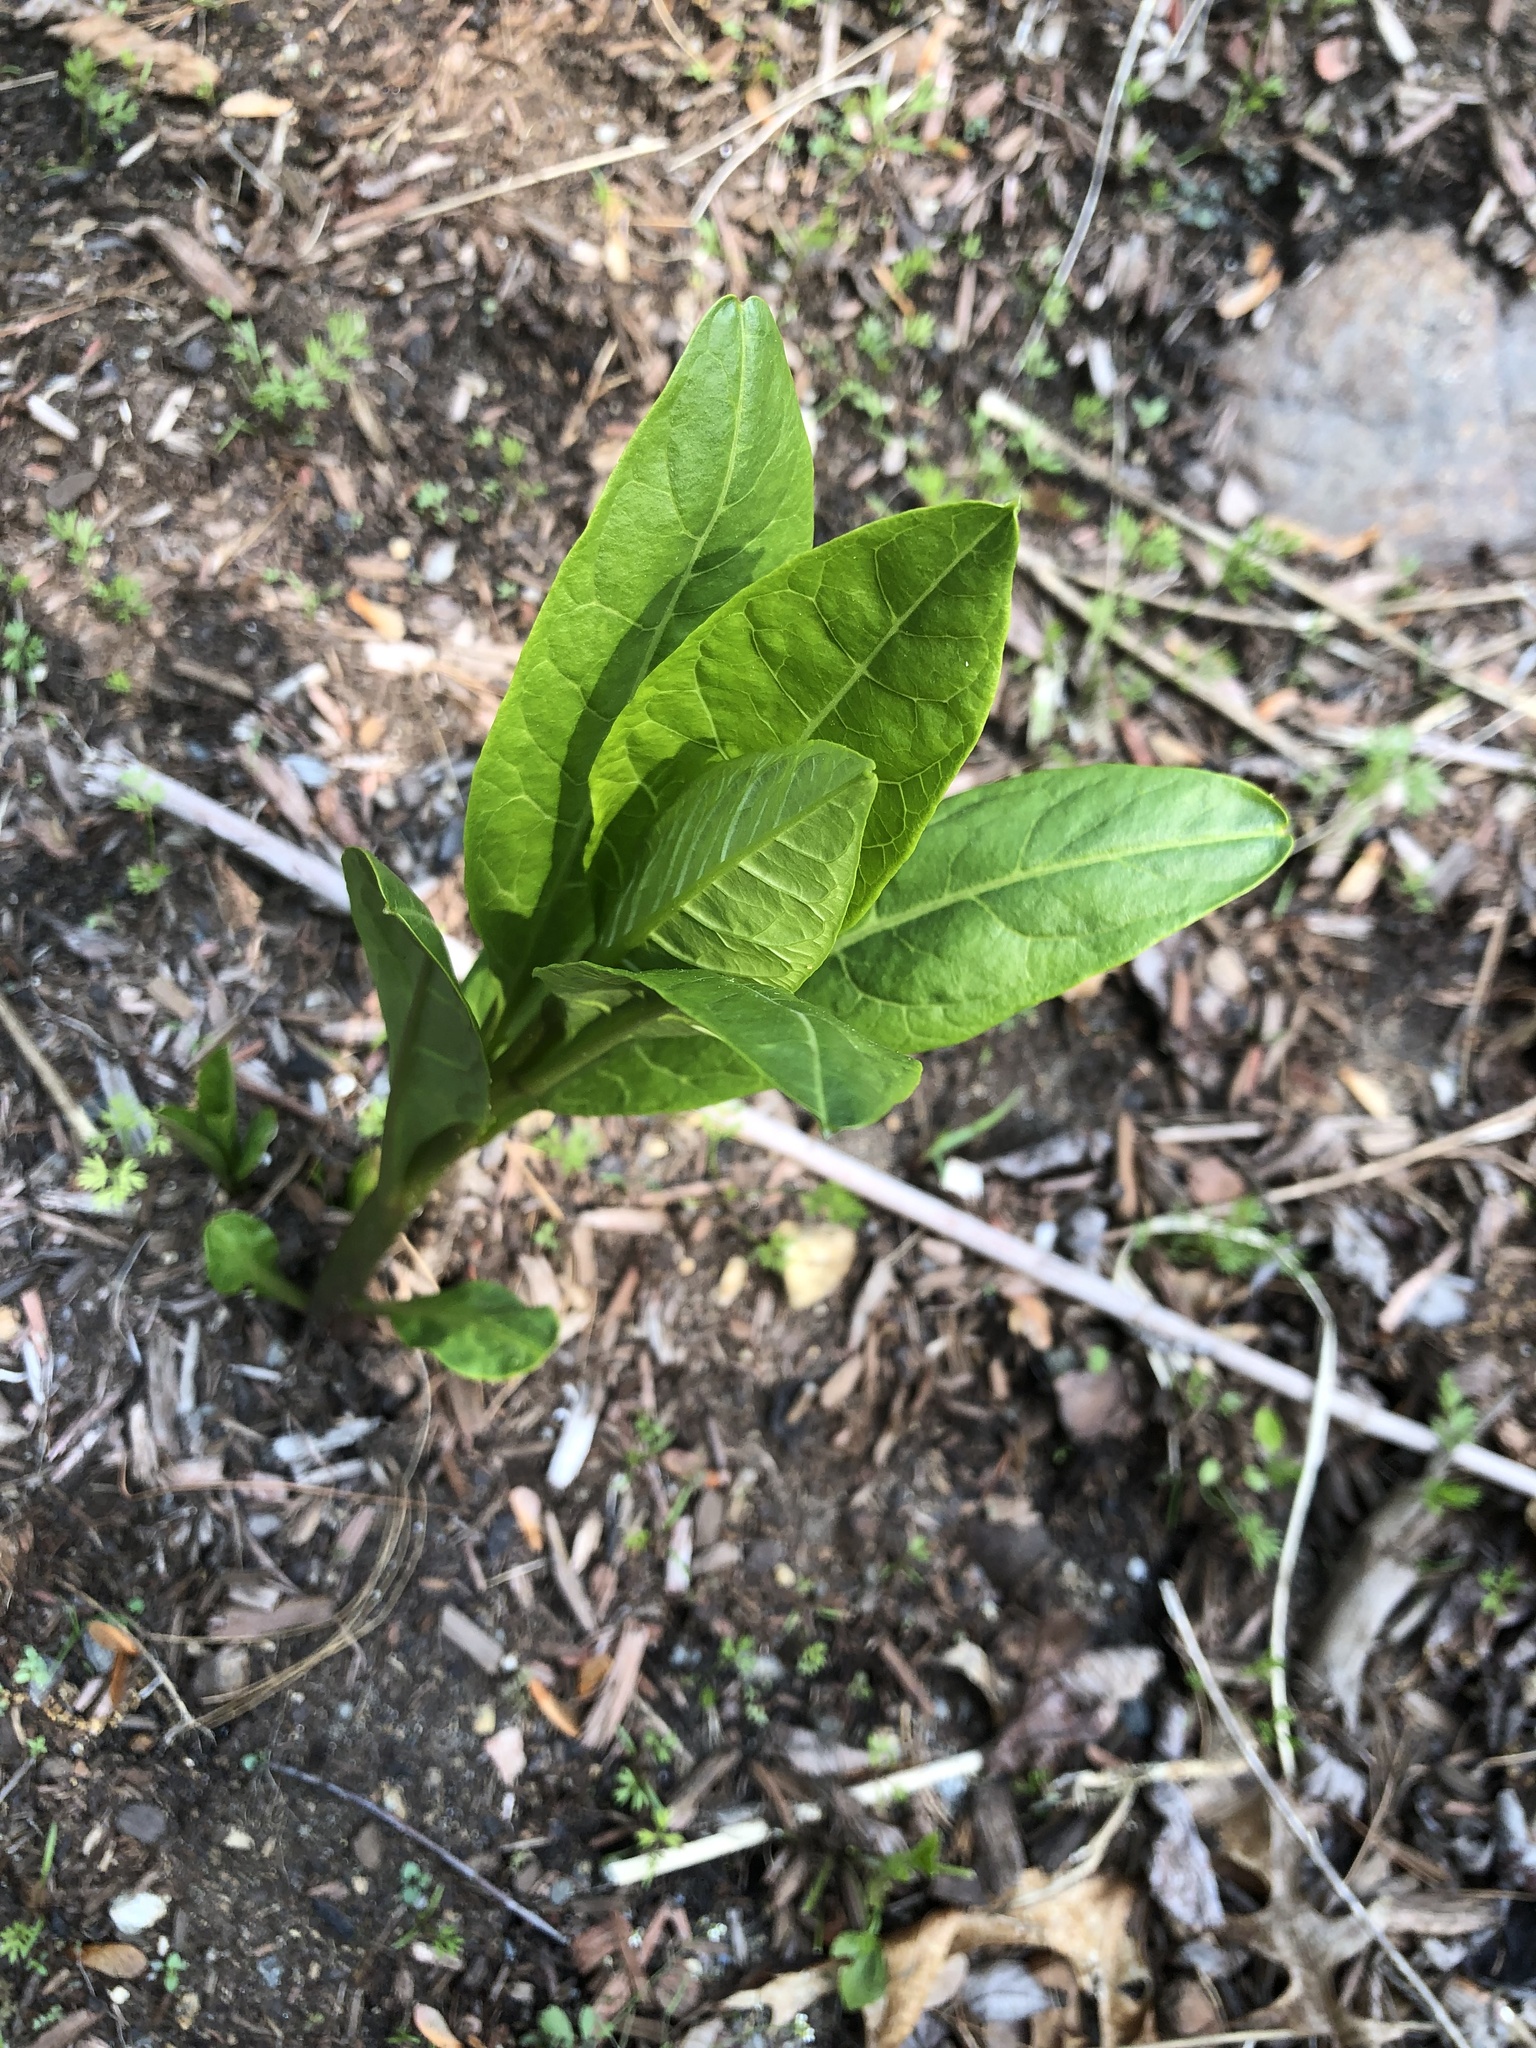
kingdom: Plantae
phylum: Tracheophyta
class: Magnoliopsida
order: Caryophyllales
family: Phytolaccaceae
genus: Phytolacca
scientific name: Phytolacca americana
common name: American pokeweed
